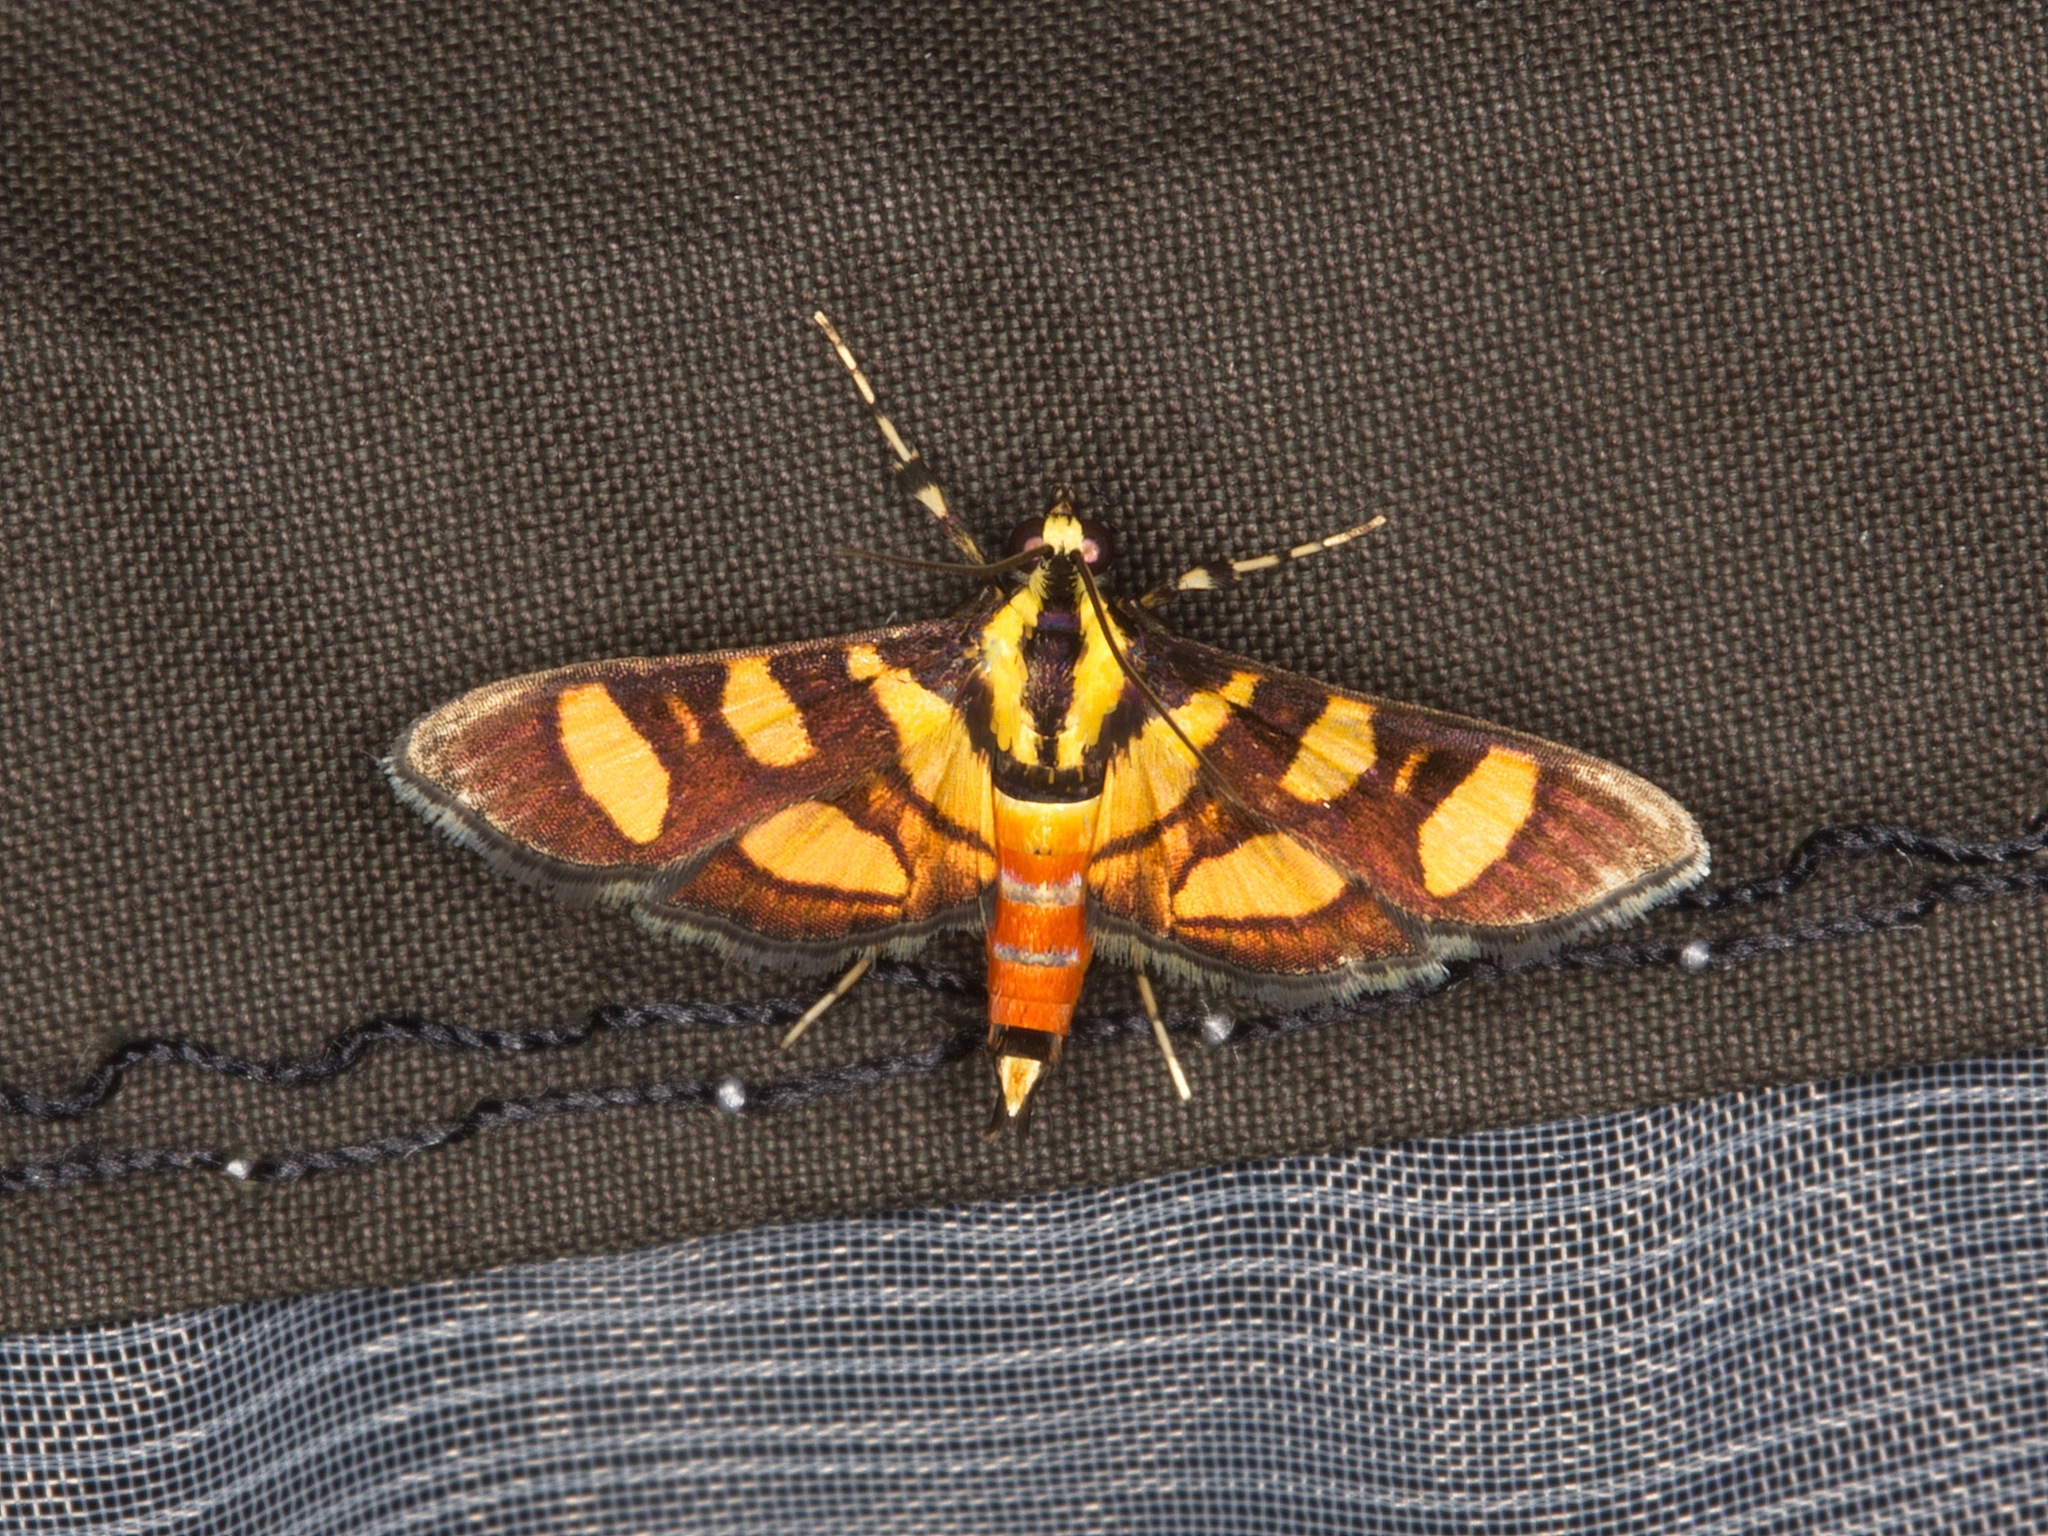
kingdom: Animalia
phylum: Arthropoda
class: Insecta
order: Lepidoptera
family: Crambidae
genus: Syngamia
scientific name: Syngamia florella
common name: Orange-spotted flower moth
